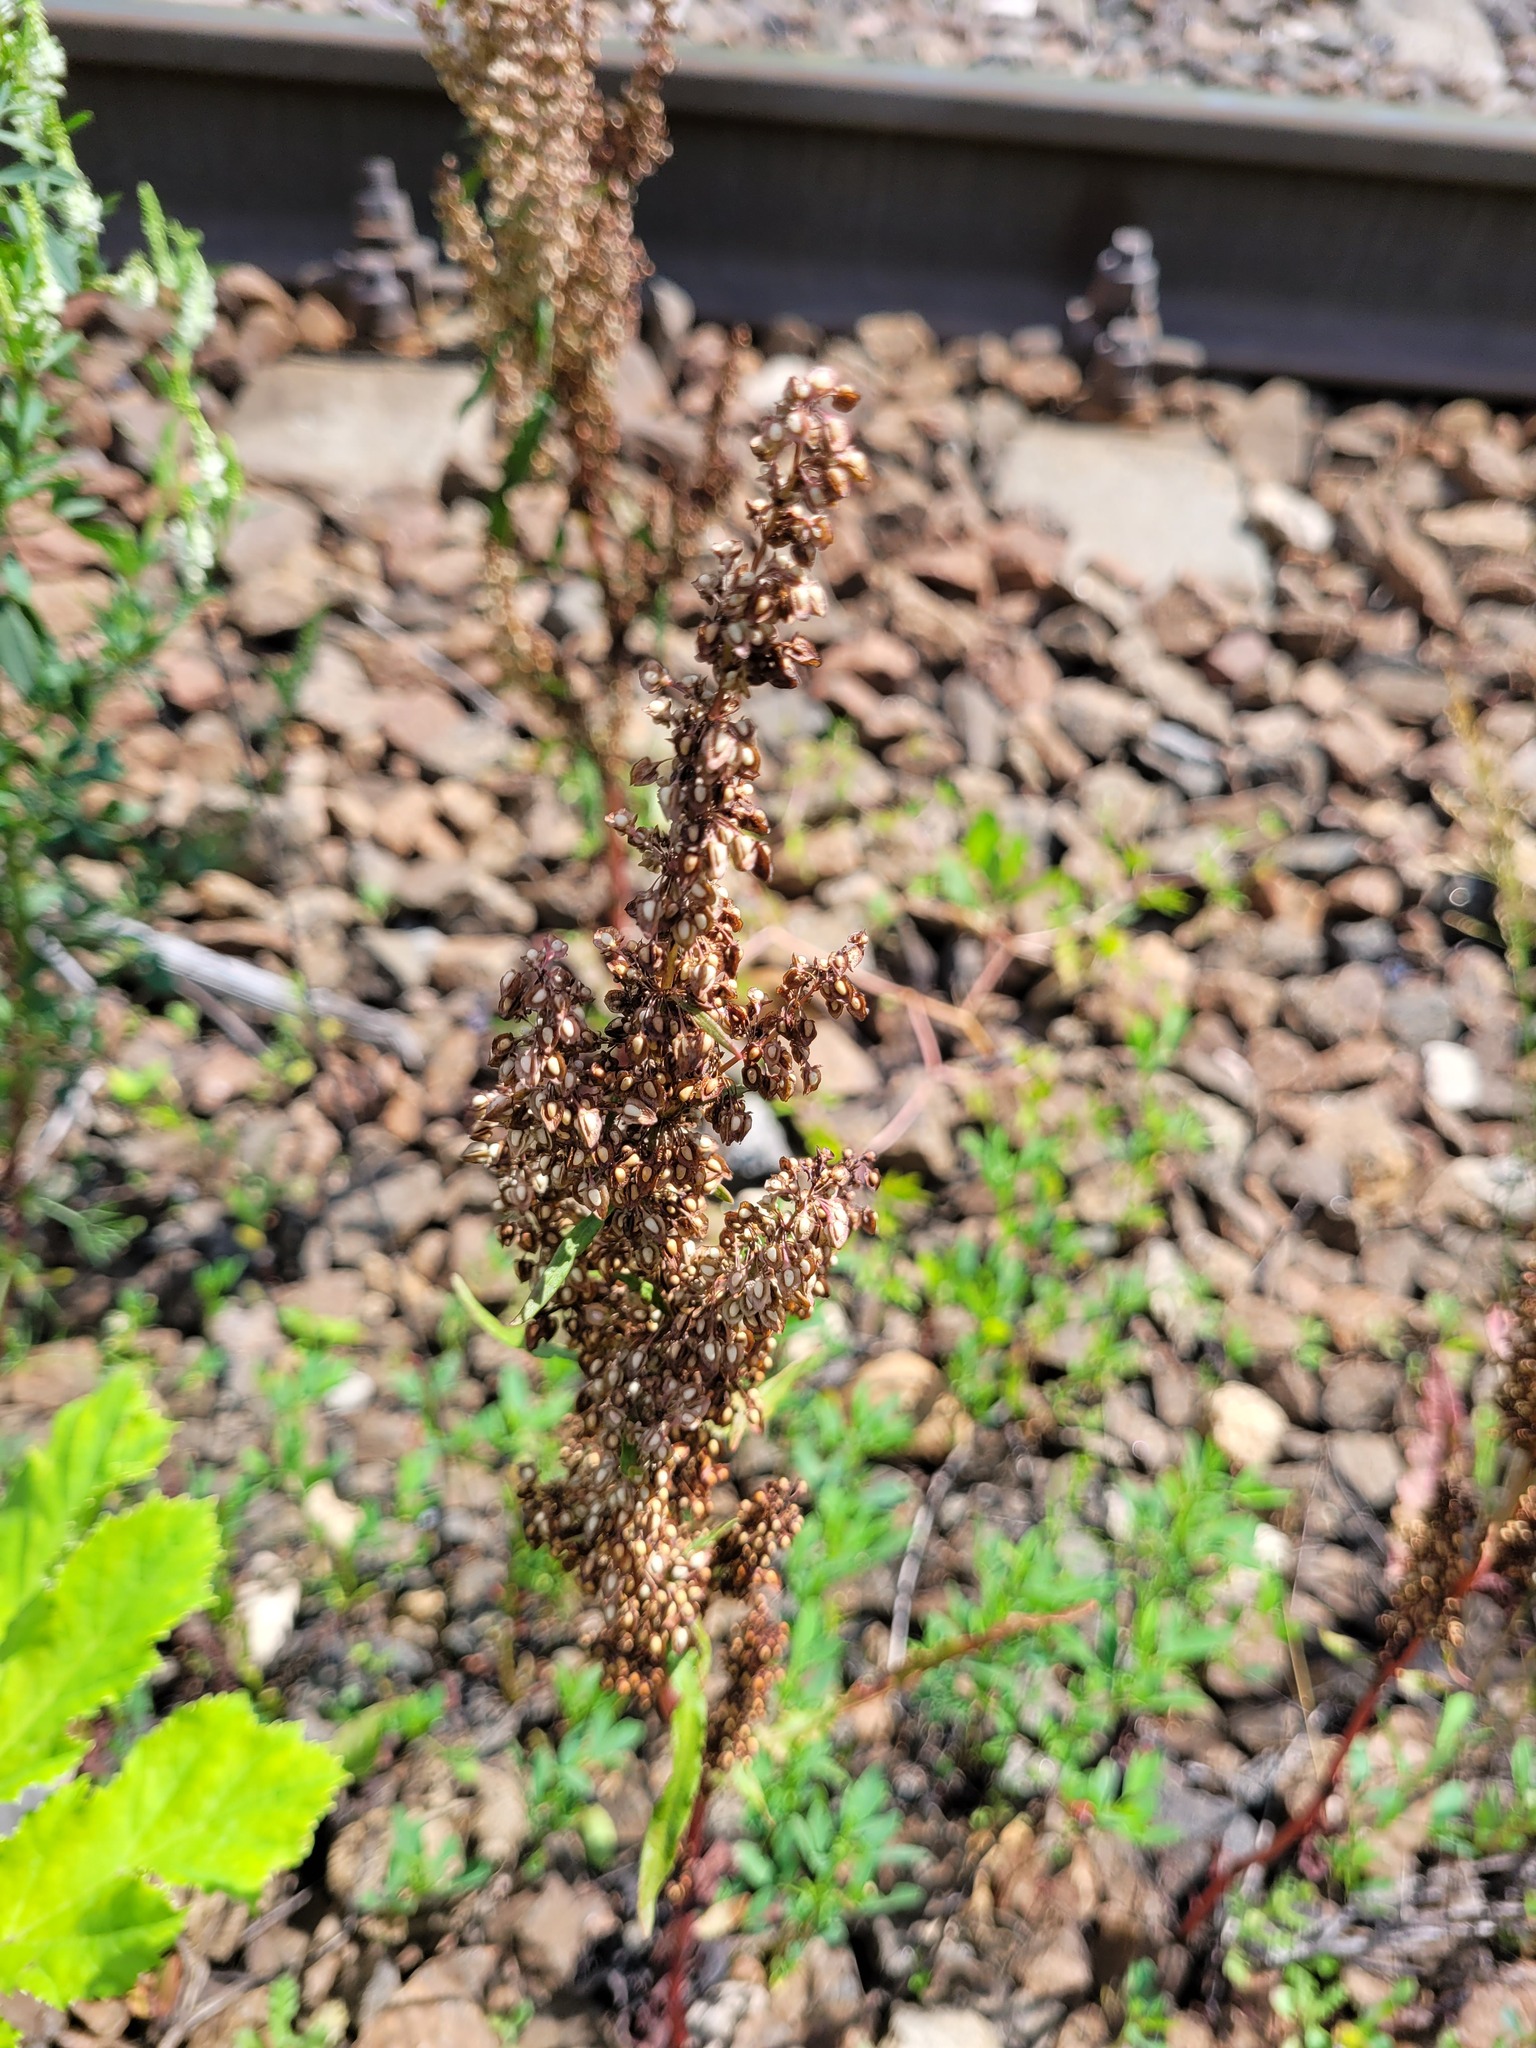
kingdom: Plantae
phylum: Tracheophyta
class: Magnoliopsida
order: Caryophyllales
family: Polygonaceae
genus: Rumex
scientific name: Rumex crispus
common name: Curled dock
